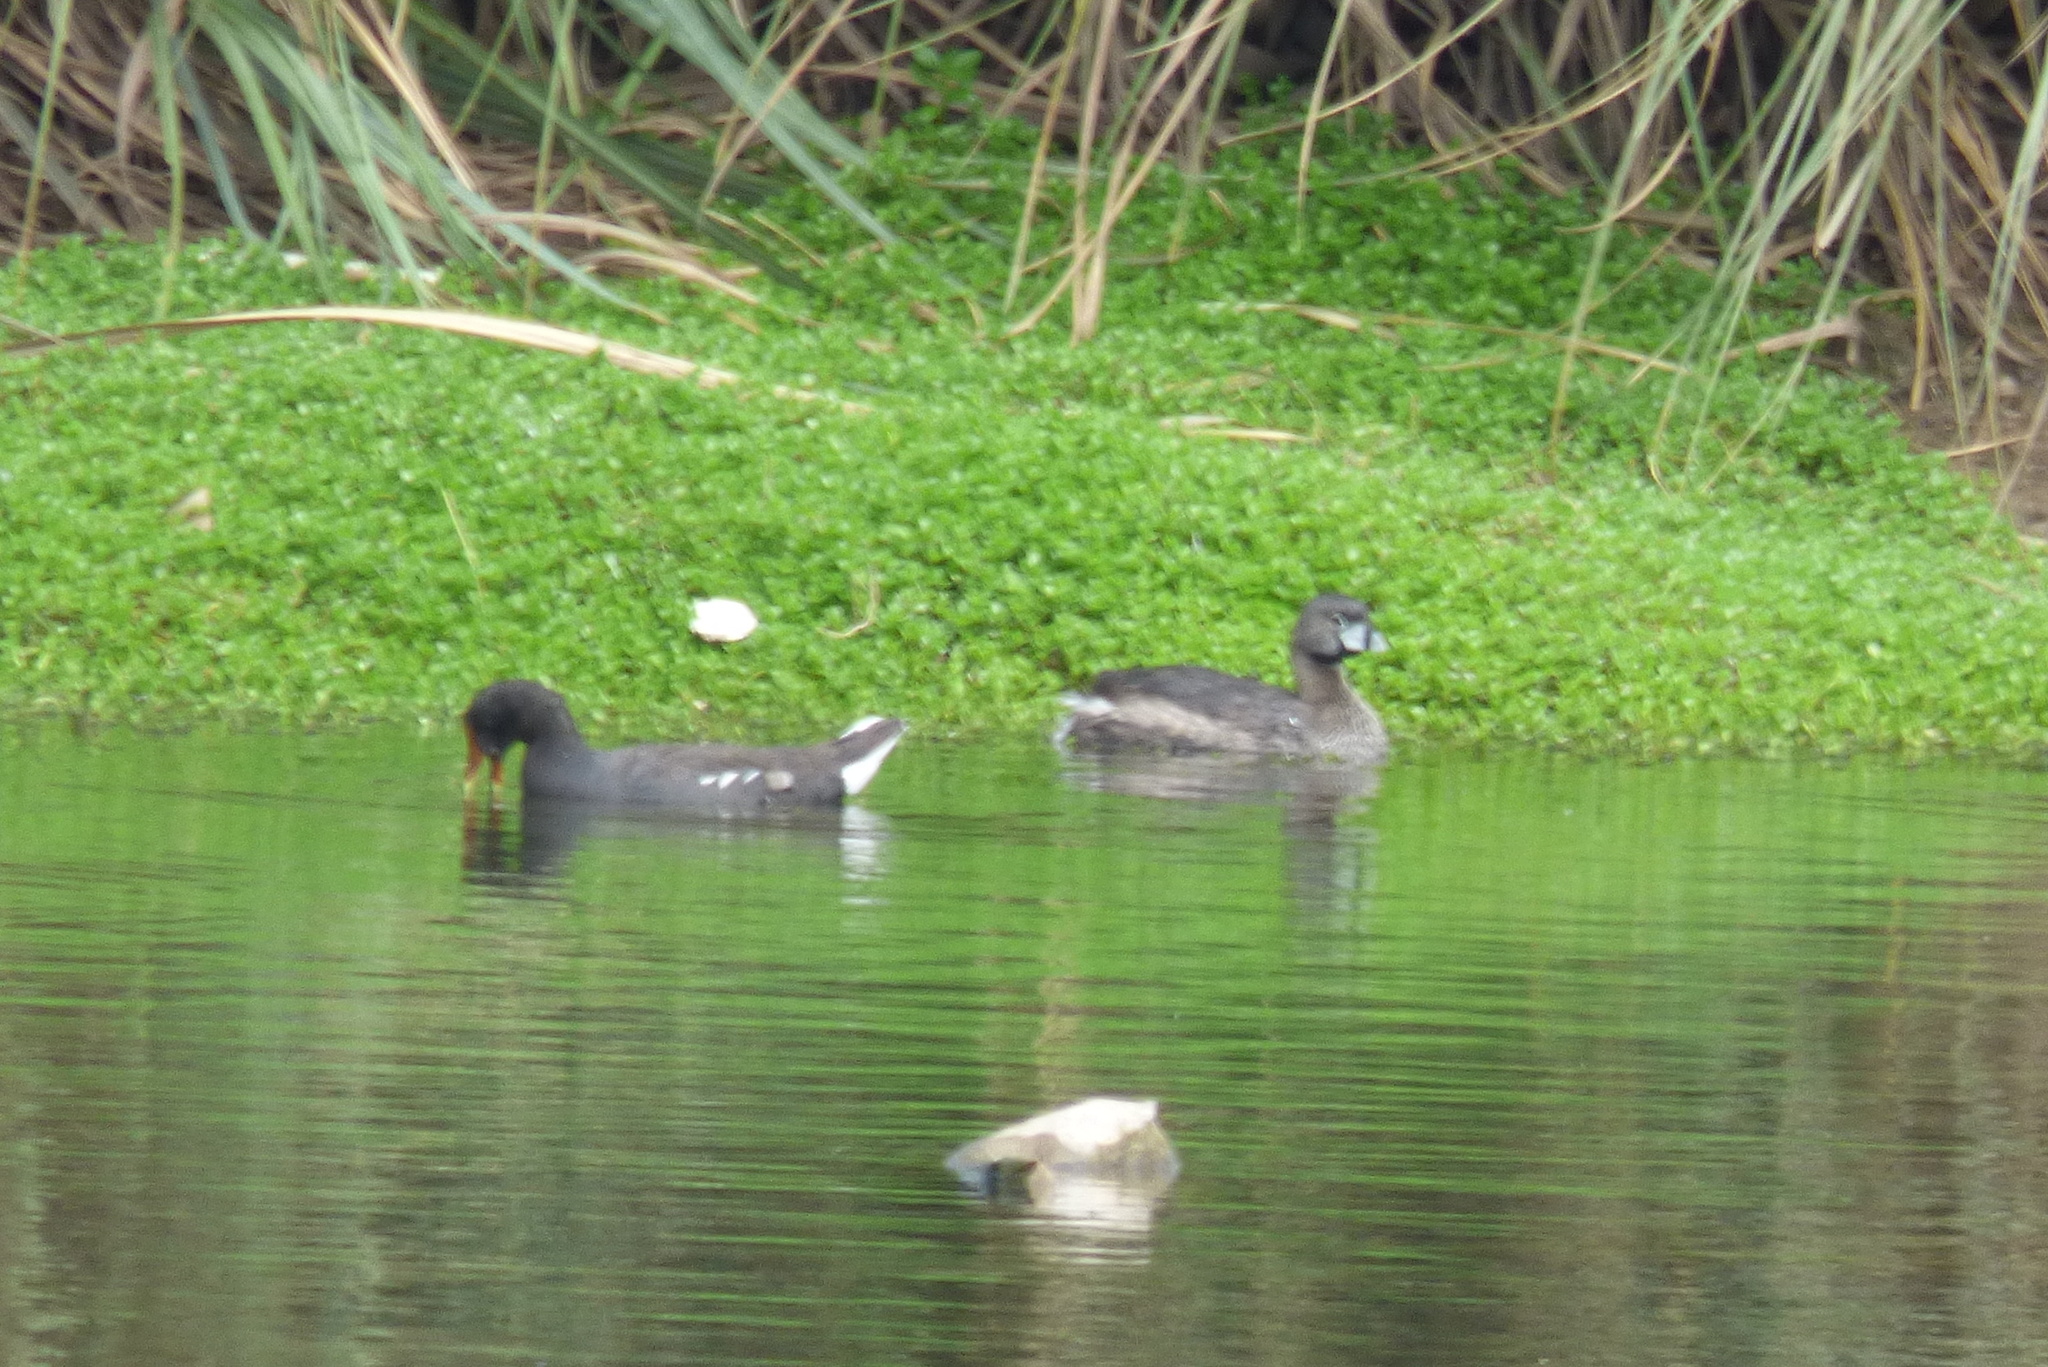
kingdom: Animalia
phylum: Chordata
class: Aves
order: Podicipediformes
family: Podicipedidae
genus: Podilymbus
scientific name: Podilymbus podiceps
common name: Pied-billed grebe
